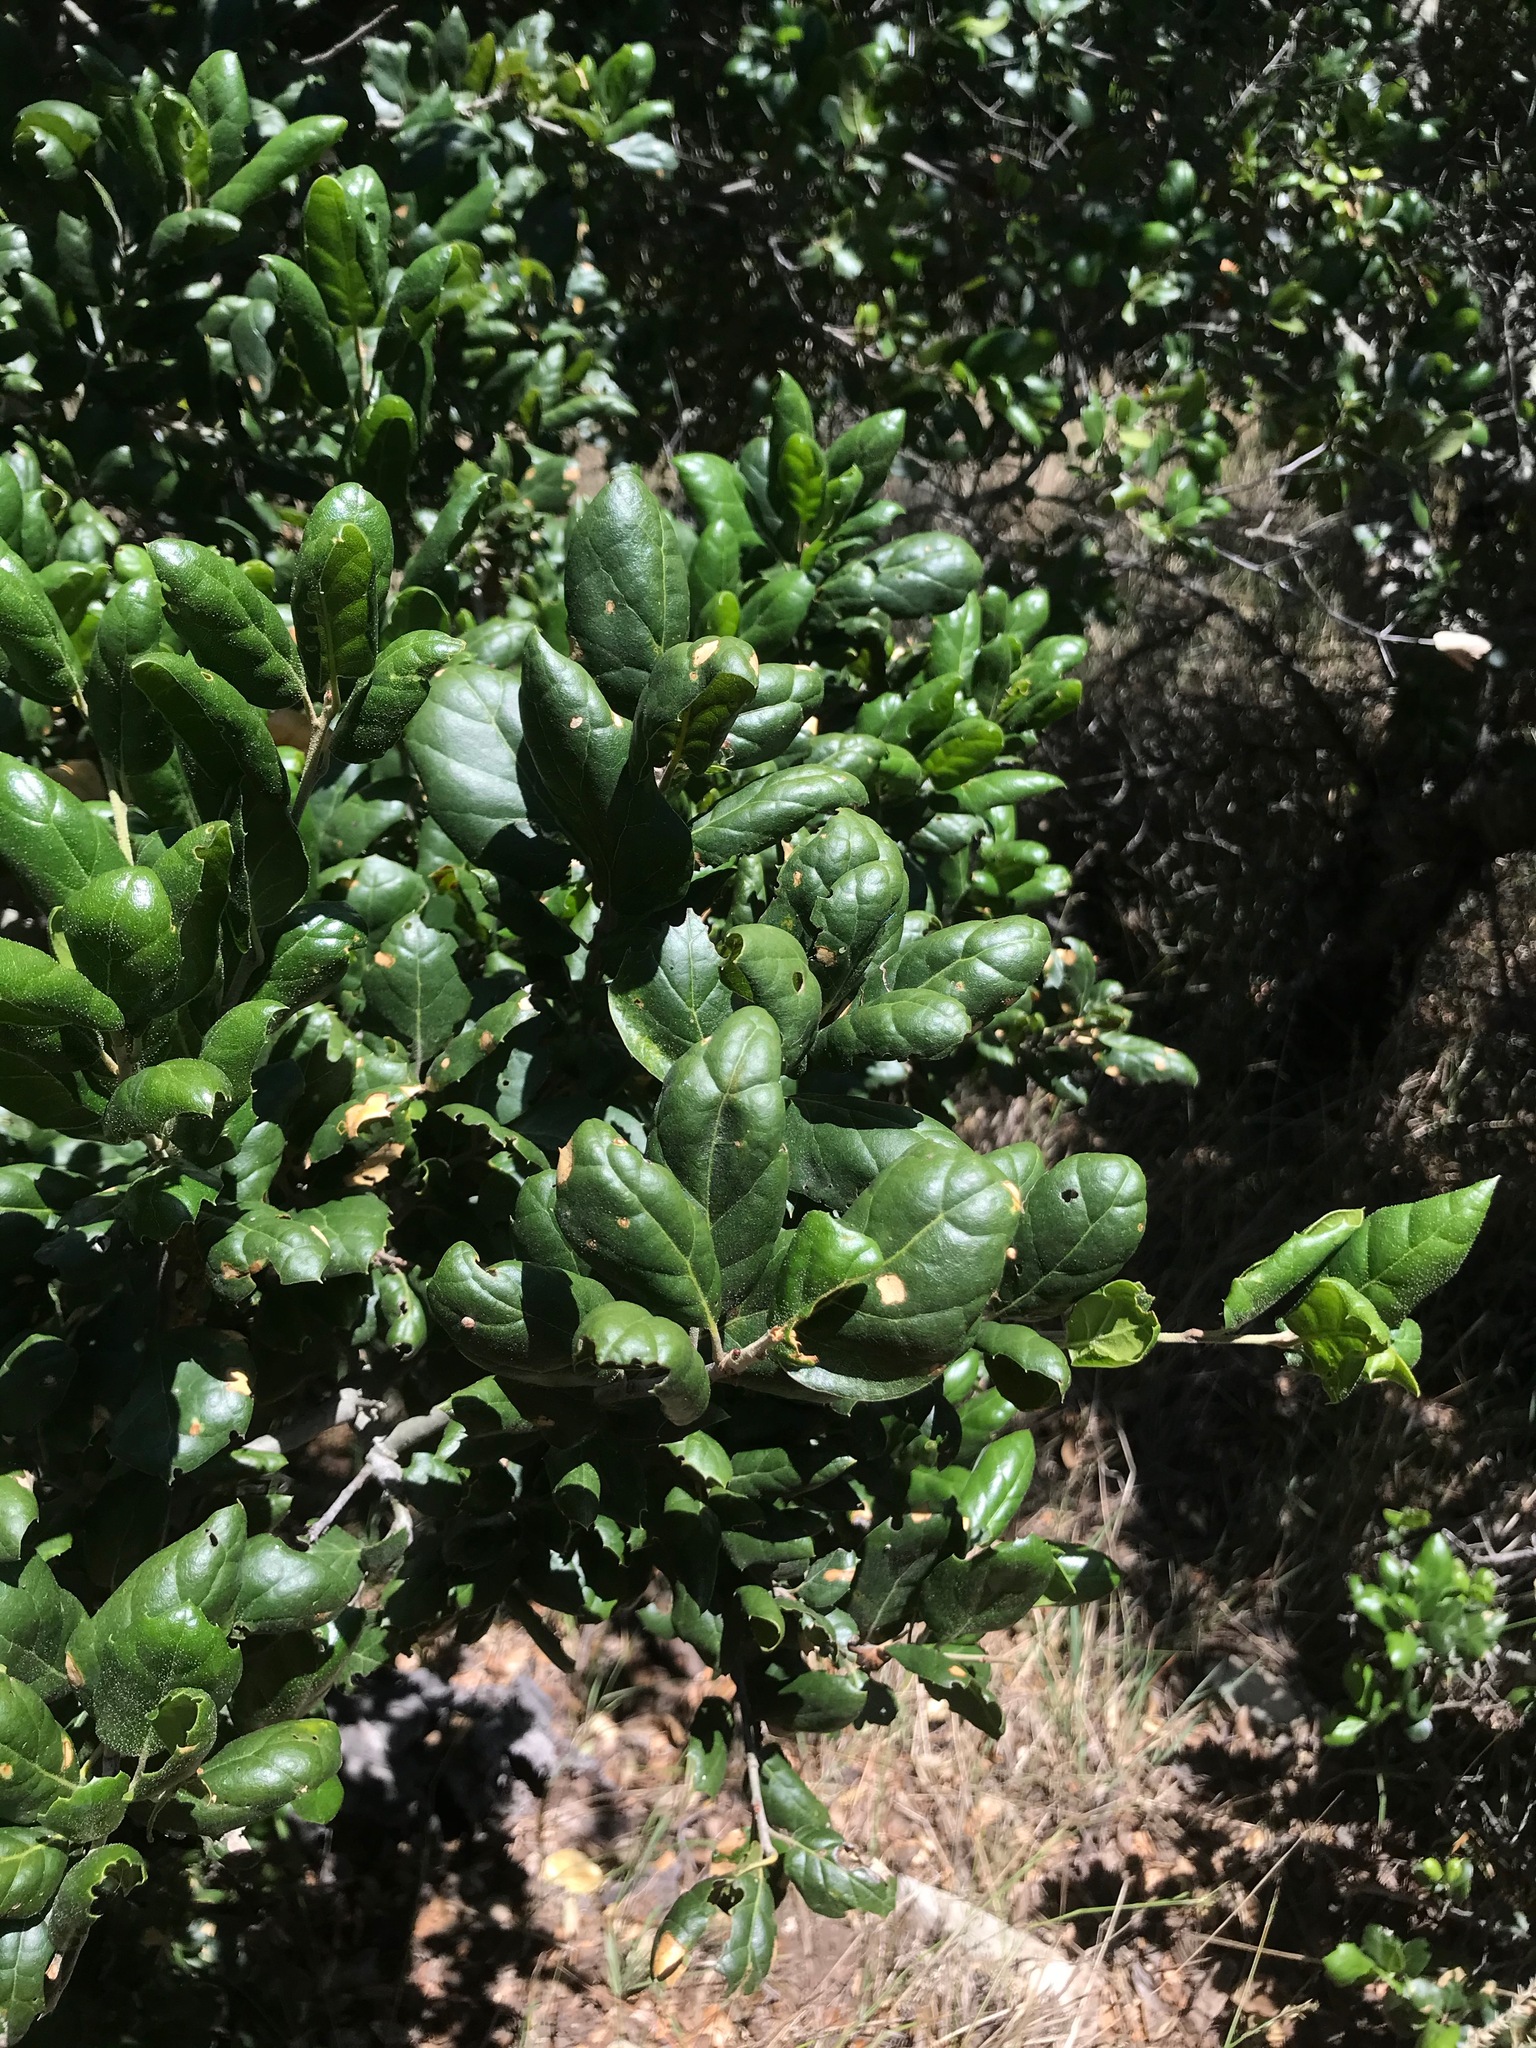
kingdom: Plantae
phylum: Tracheophyta
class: Magnoliopsida
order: Fagales
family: Fagaceae
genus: Quercus
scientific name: Quercus agrifolia
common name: California live oak
